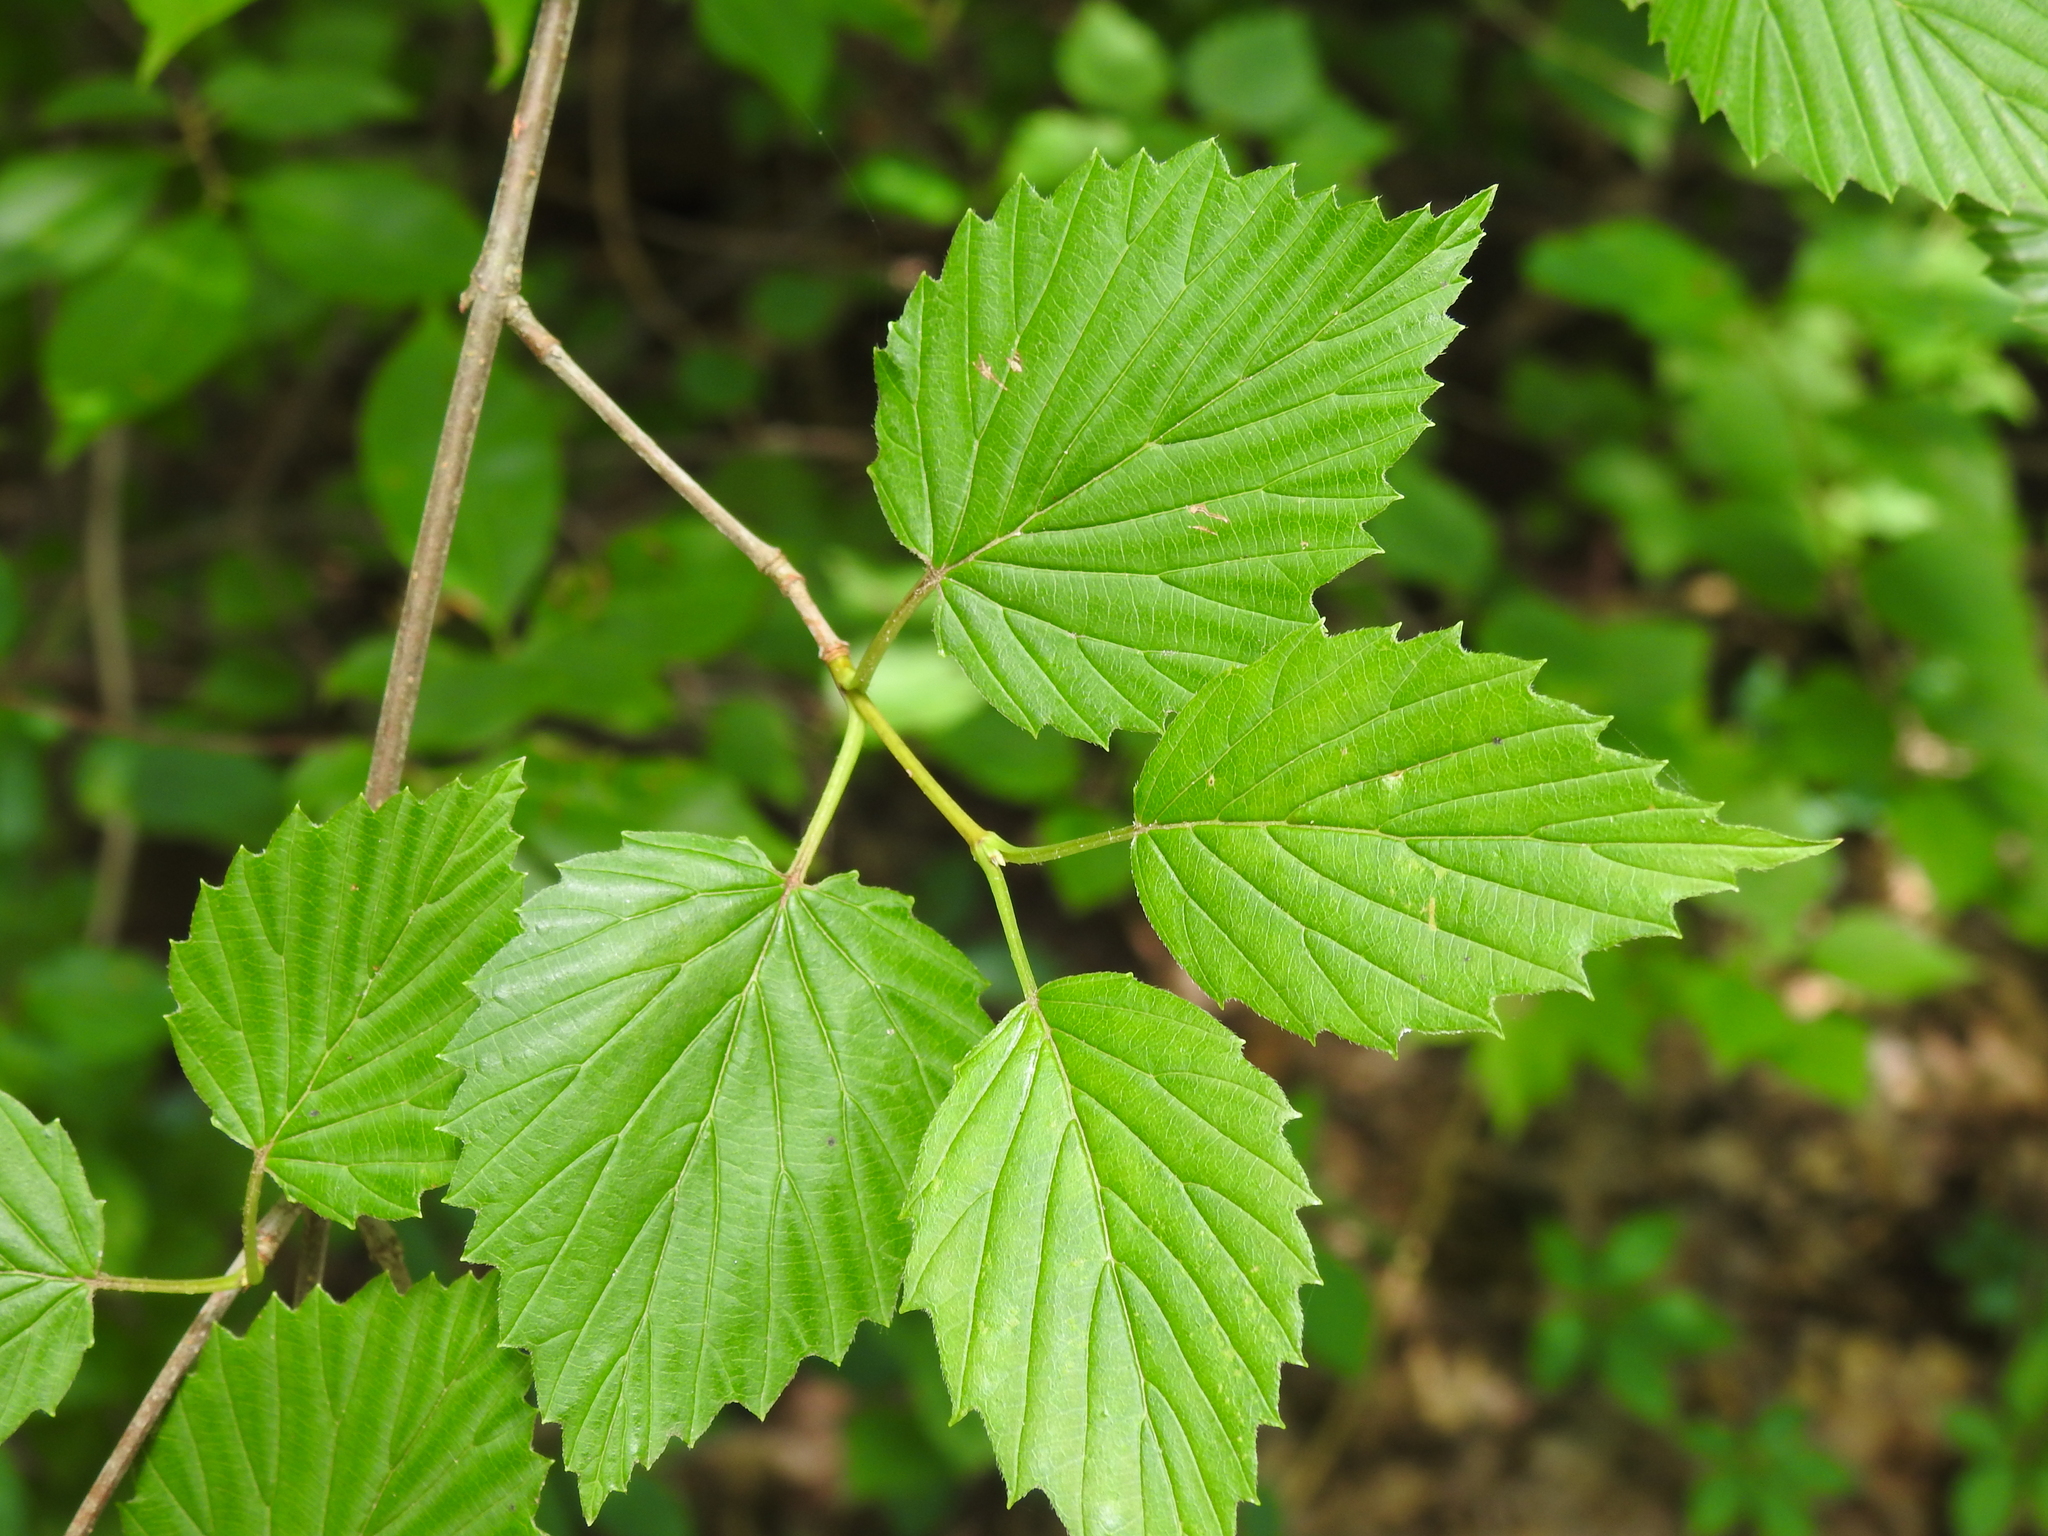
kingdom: Plantae
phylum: Tracheophyta
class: Magnoliopsida
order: Dipsacales
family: Viburnaceae
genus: Viburnum
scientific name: Viburnum recognitum
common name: Northern arrow-wood
